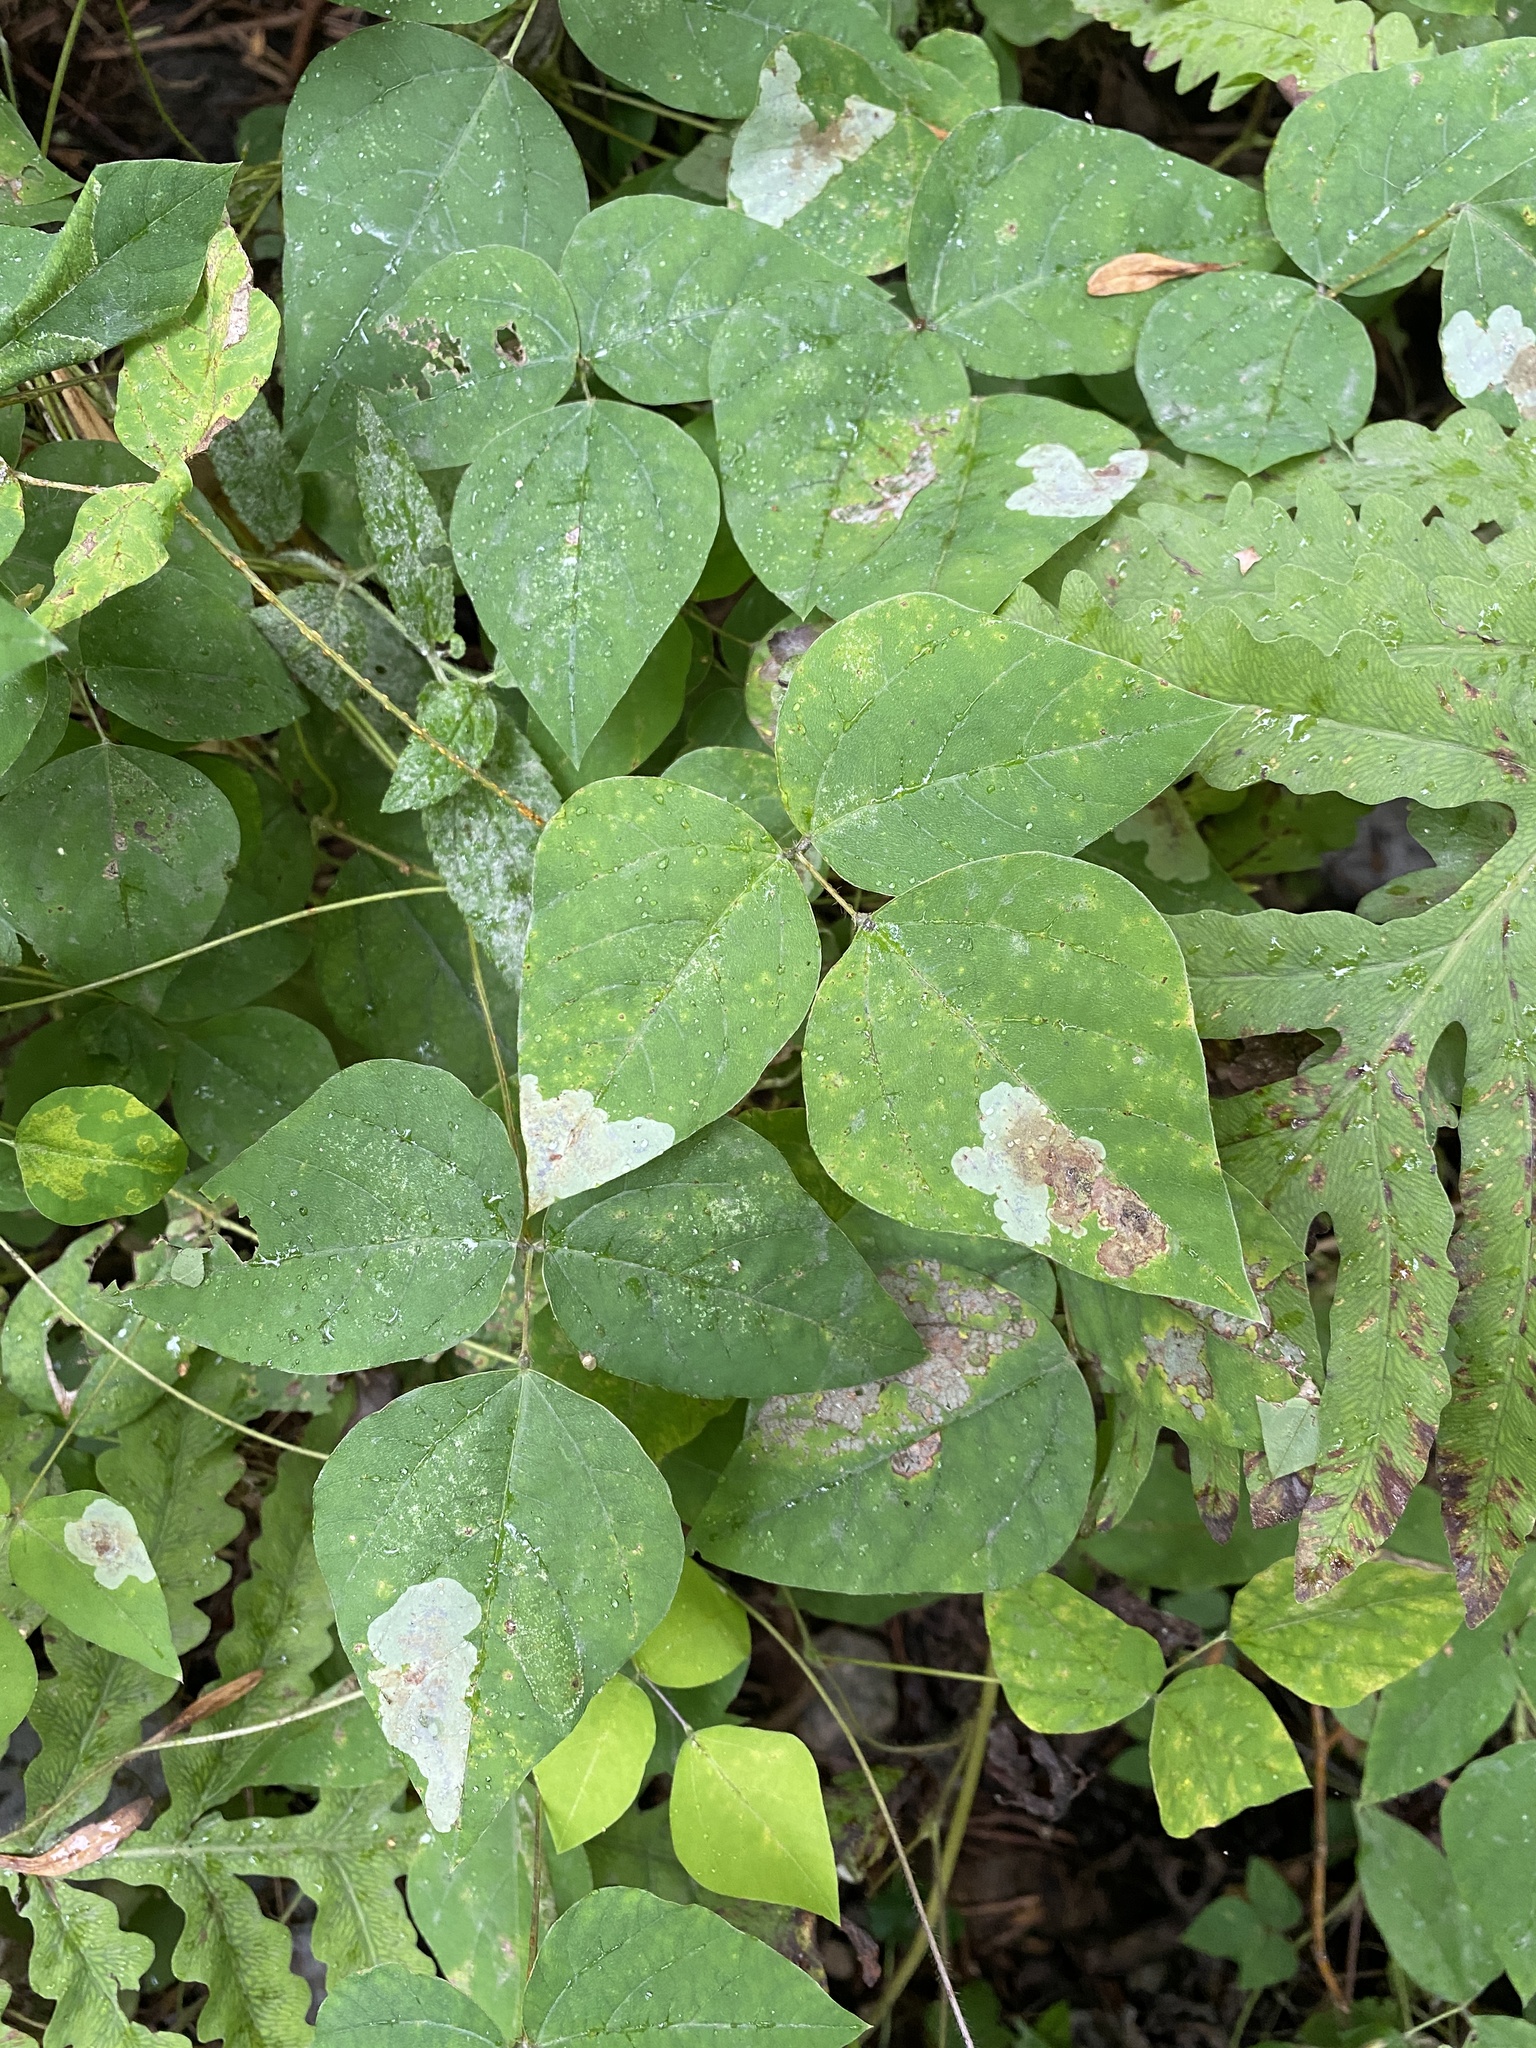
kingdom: Animalia
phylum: Arthropoda
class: Insecta
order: Lepidoptera
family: Gracillariidae
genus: Leucanthiza
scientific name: Leucanthiza amphicarpeaefoliella
